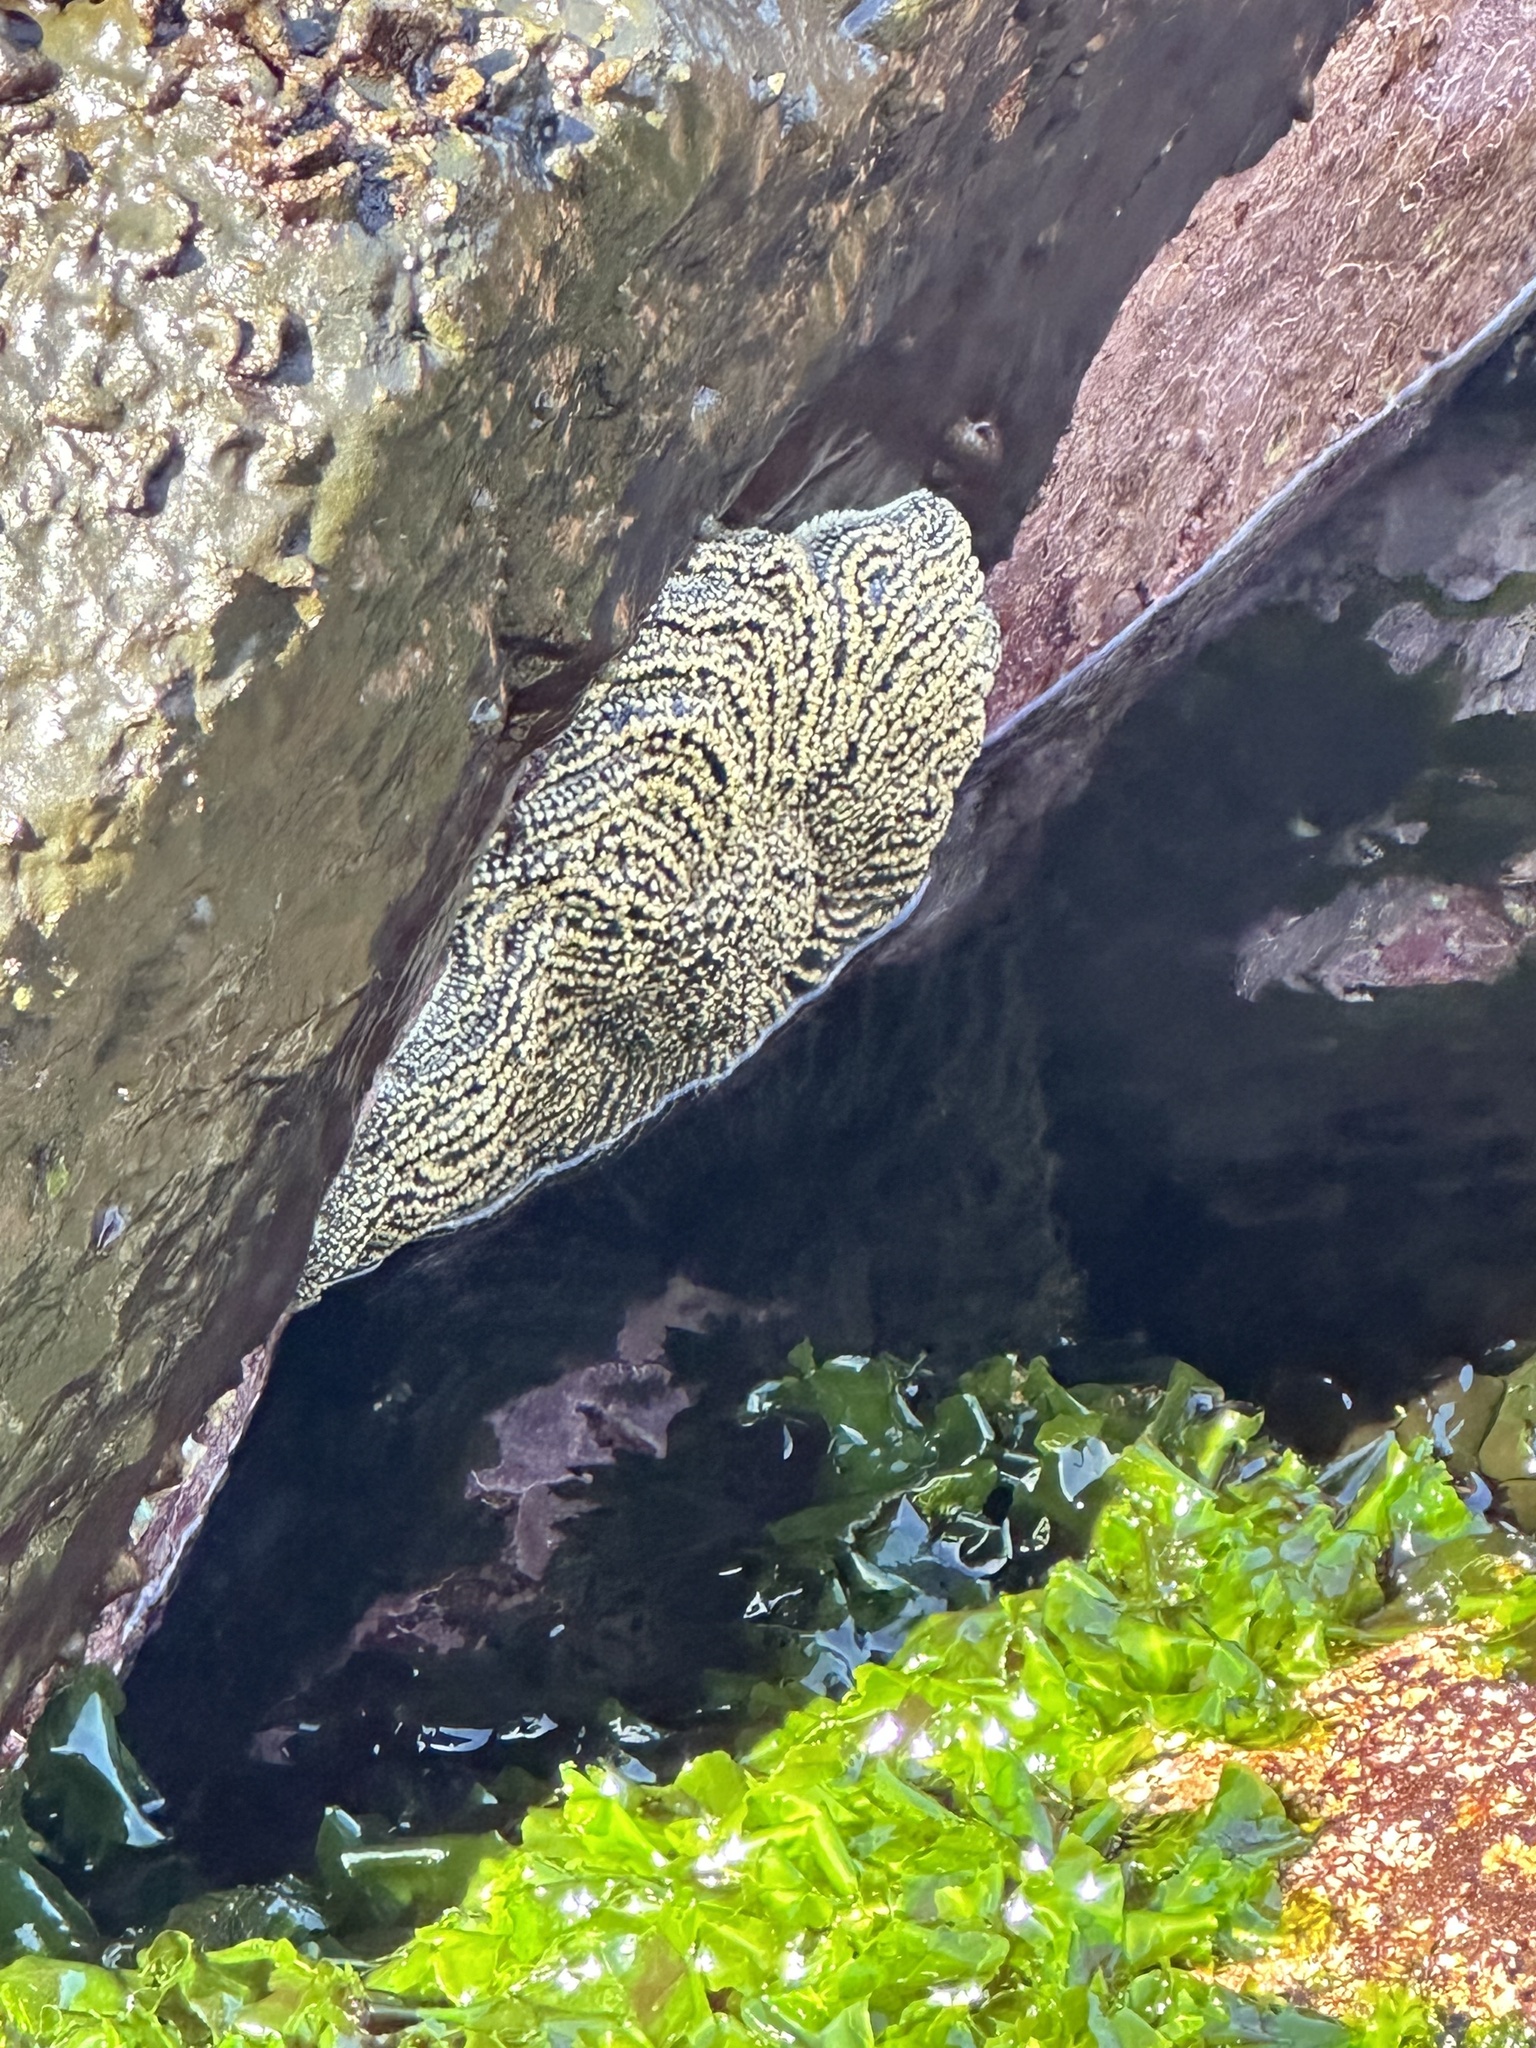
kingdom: Animalia
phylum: Echinodermata
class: Asteroidea
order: Forcipulatida
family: Heliasteridae
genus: Heliaster
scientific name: Heliaster helianthus
